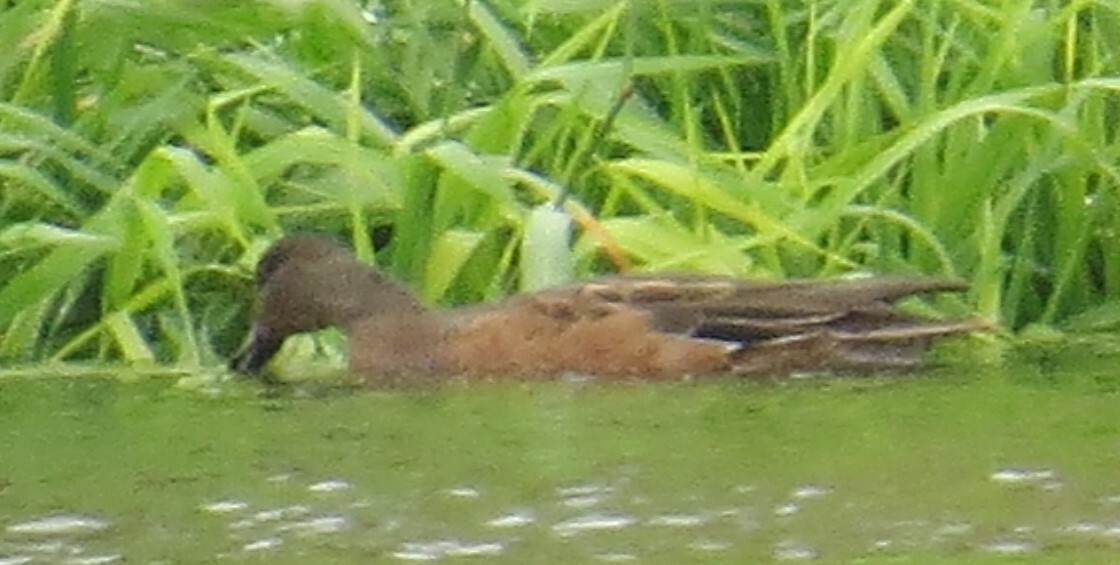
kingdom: Animalia
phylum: Chordata
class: Aves
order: Anseriformes
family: Anatidae
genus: Mareca
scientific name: Mareca americana
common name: American wigeon
